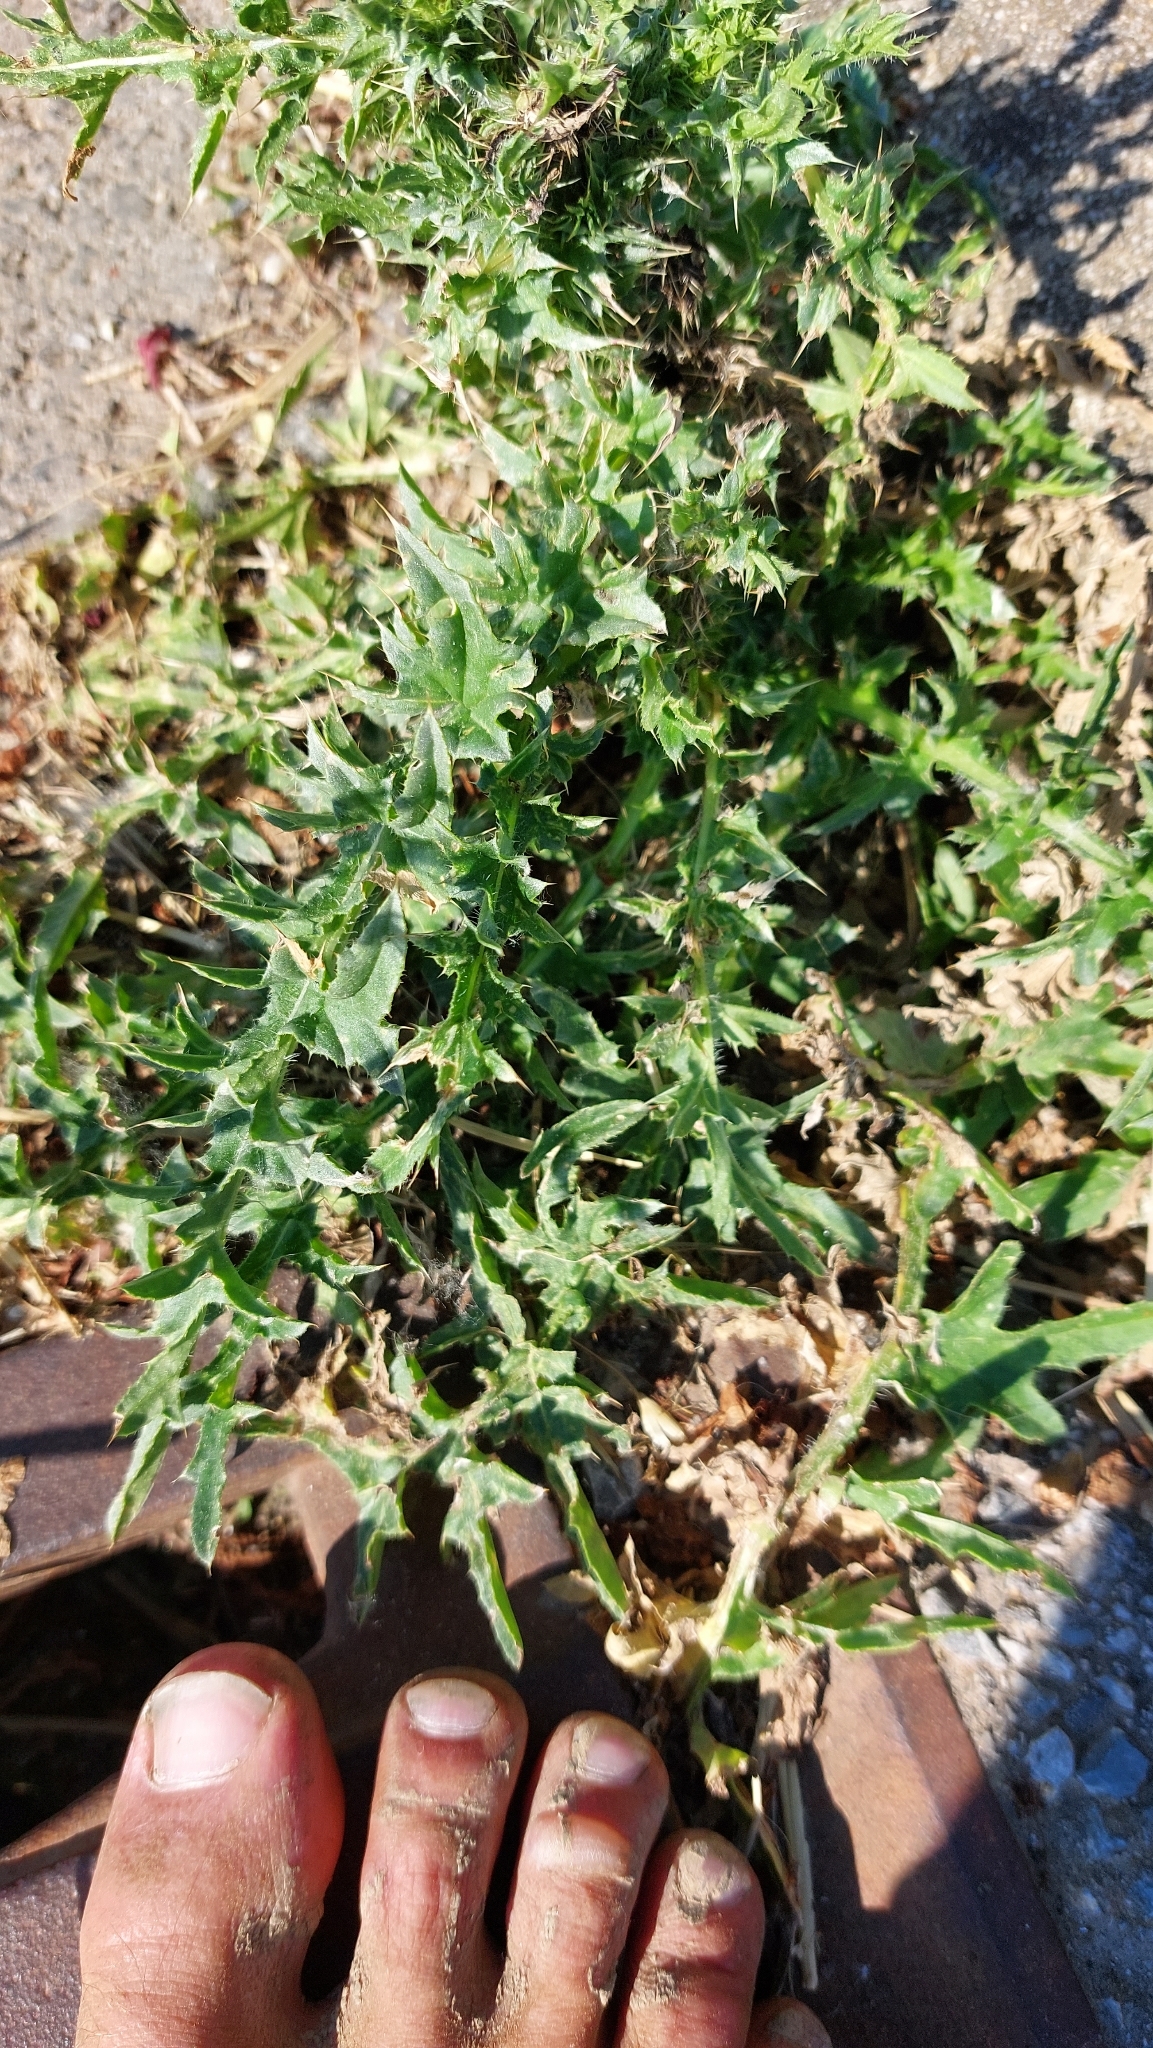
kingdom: Plantae
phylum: Tracheophyta
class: Magnoliopsida
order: Asterales
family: Asteraceae
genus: Carduus
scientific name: Carduus acanthoides
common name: Plumeless thistle
